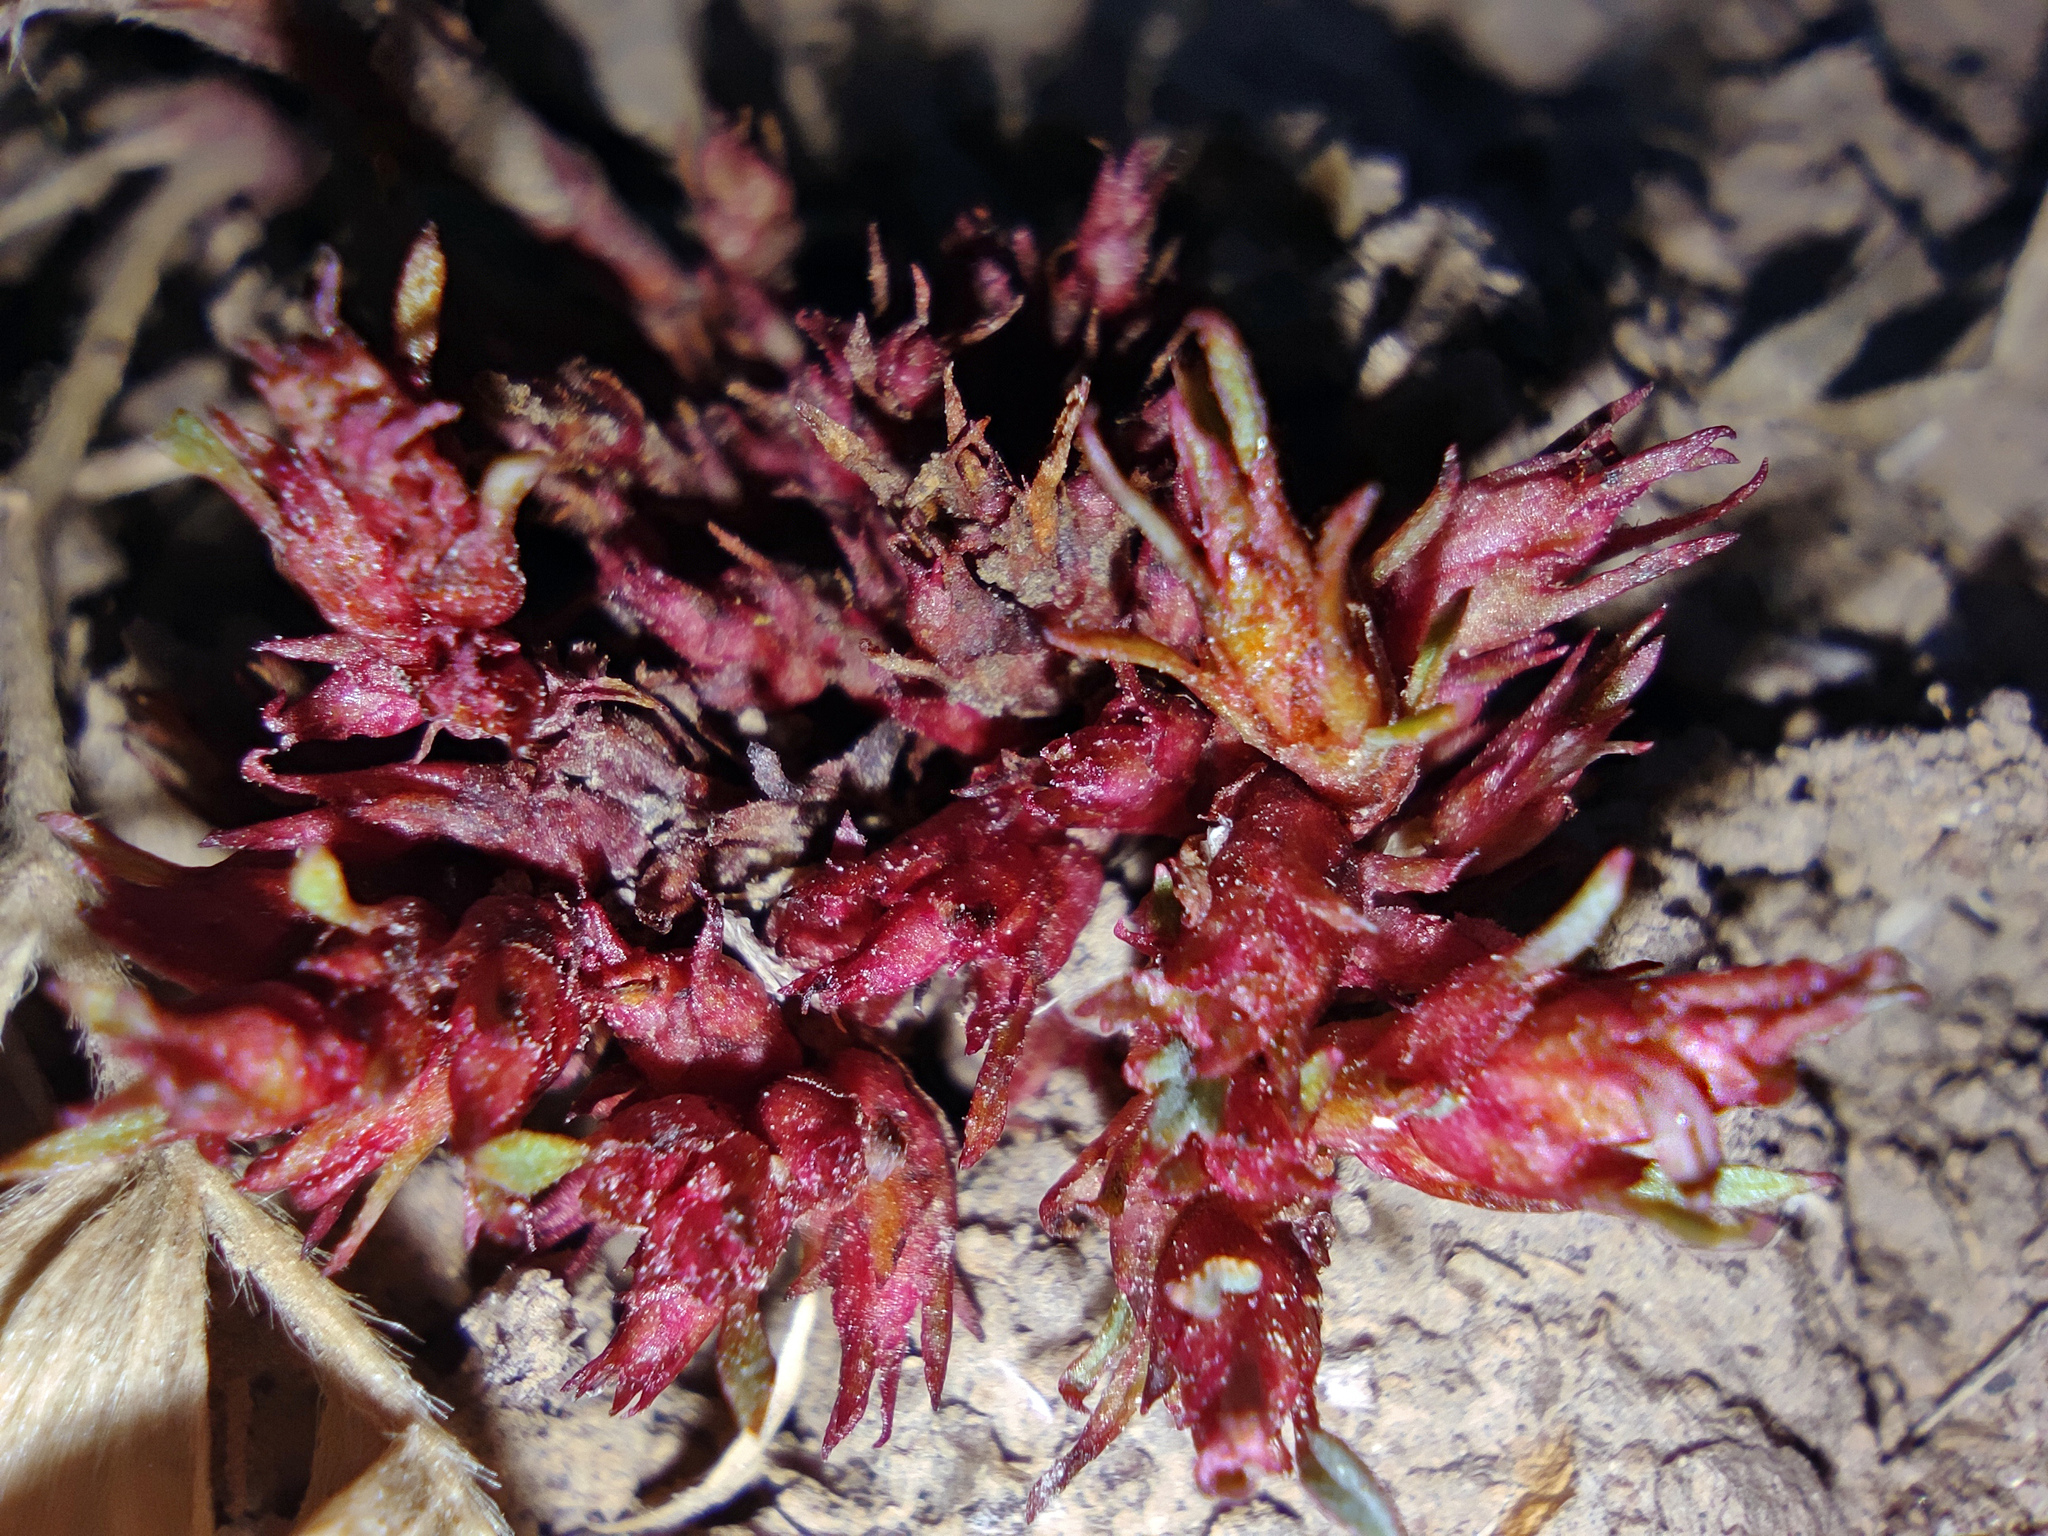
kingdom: Plantae
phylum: Tracheophyta
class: Magnoliopsida
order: Rosales
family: Rosaceae
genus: Sibbaldianthe
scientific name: Sibbaldianthe bifurca
